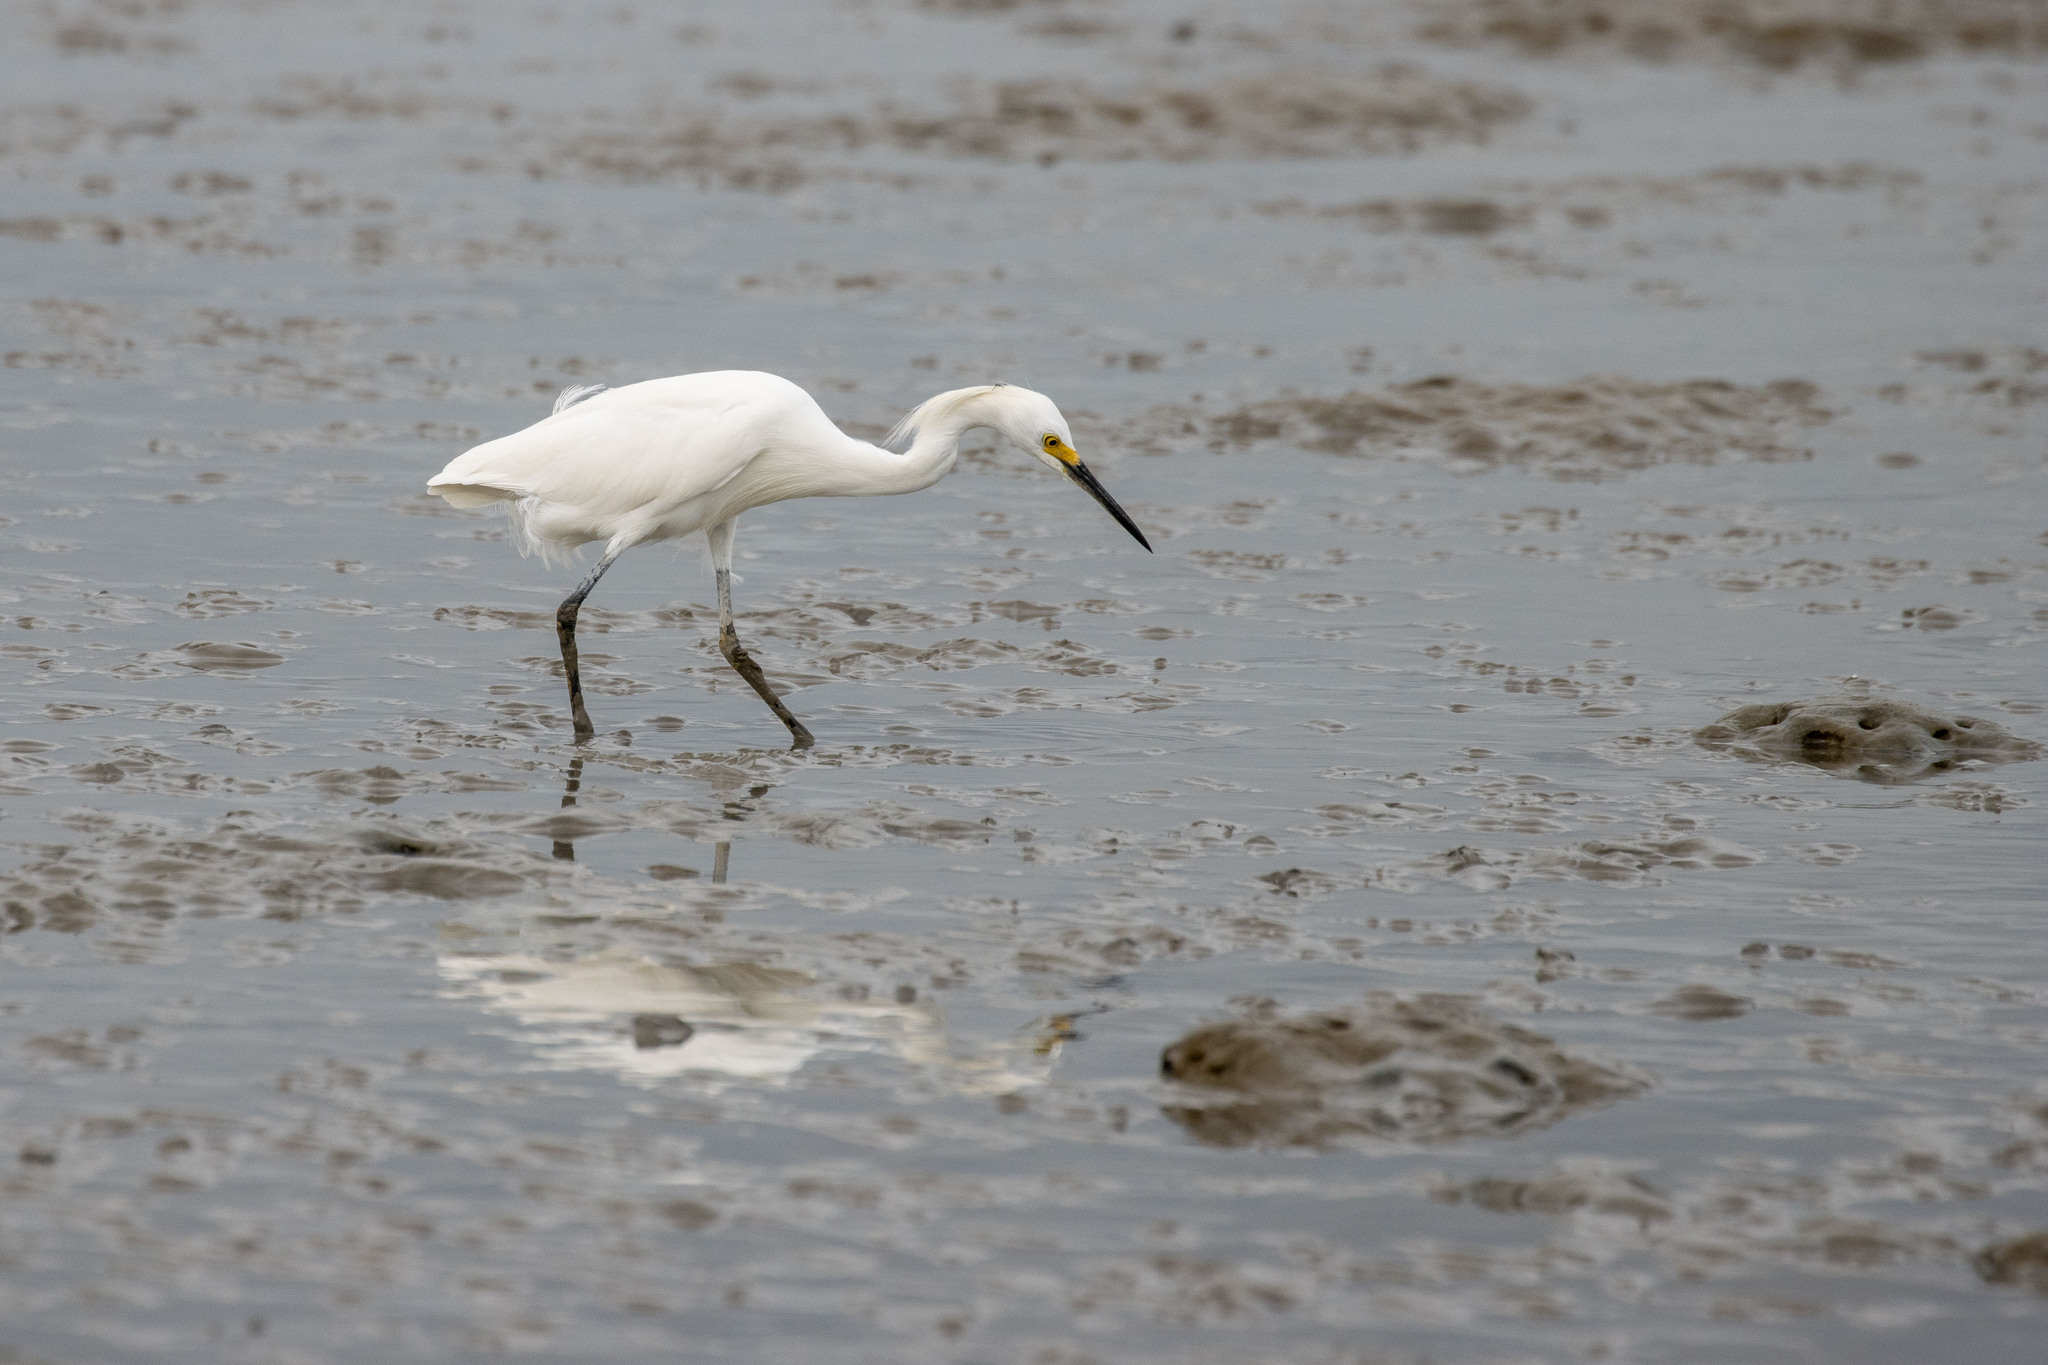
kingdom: Animalia
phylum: Chordata
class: Aves
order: Pelecaniformes
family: Ardeidae
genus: Egretta
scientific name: Egretta thula
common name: Snowy egret
